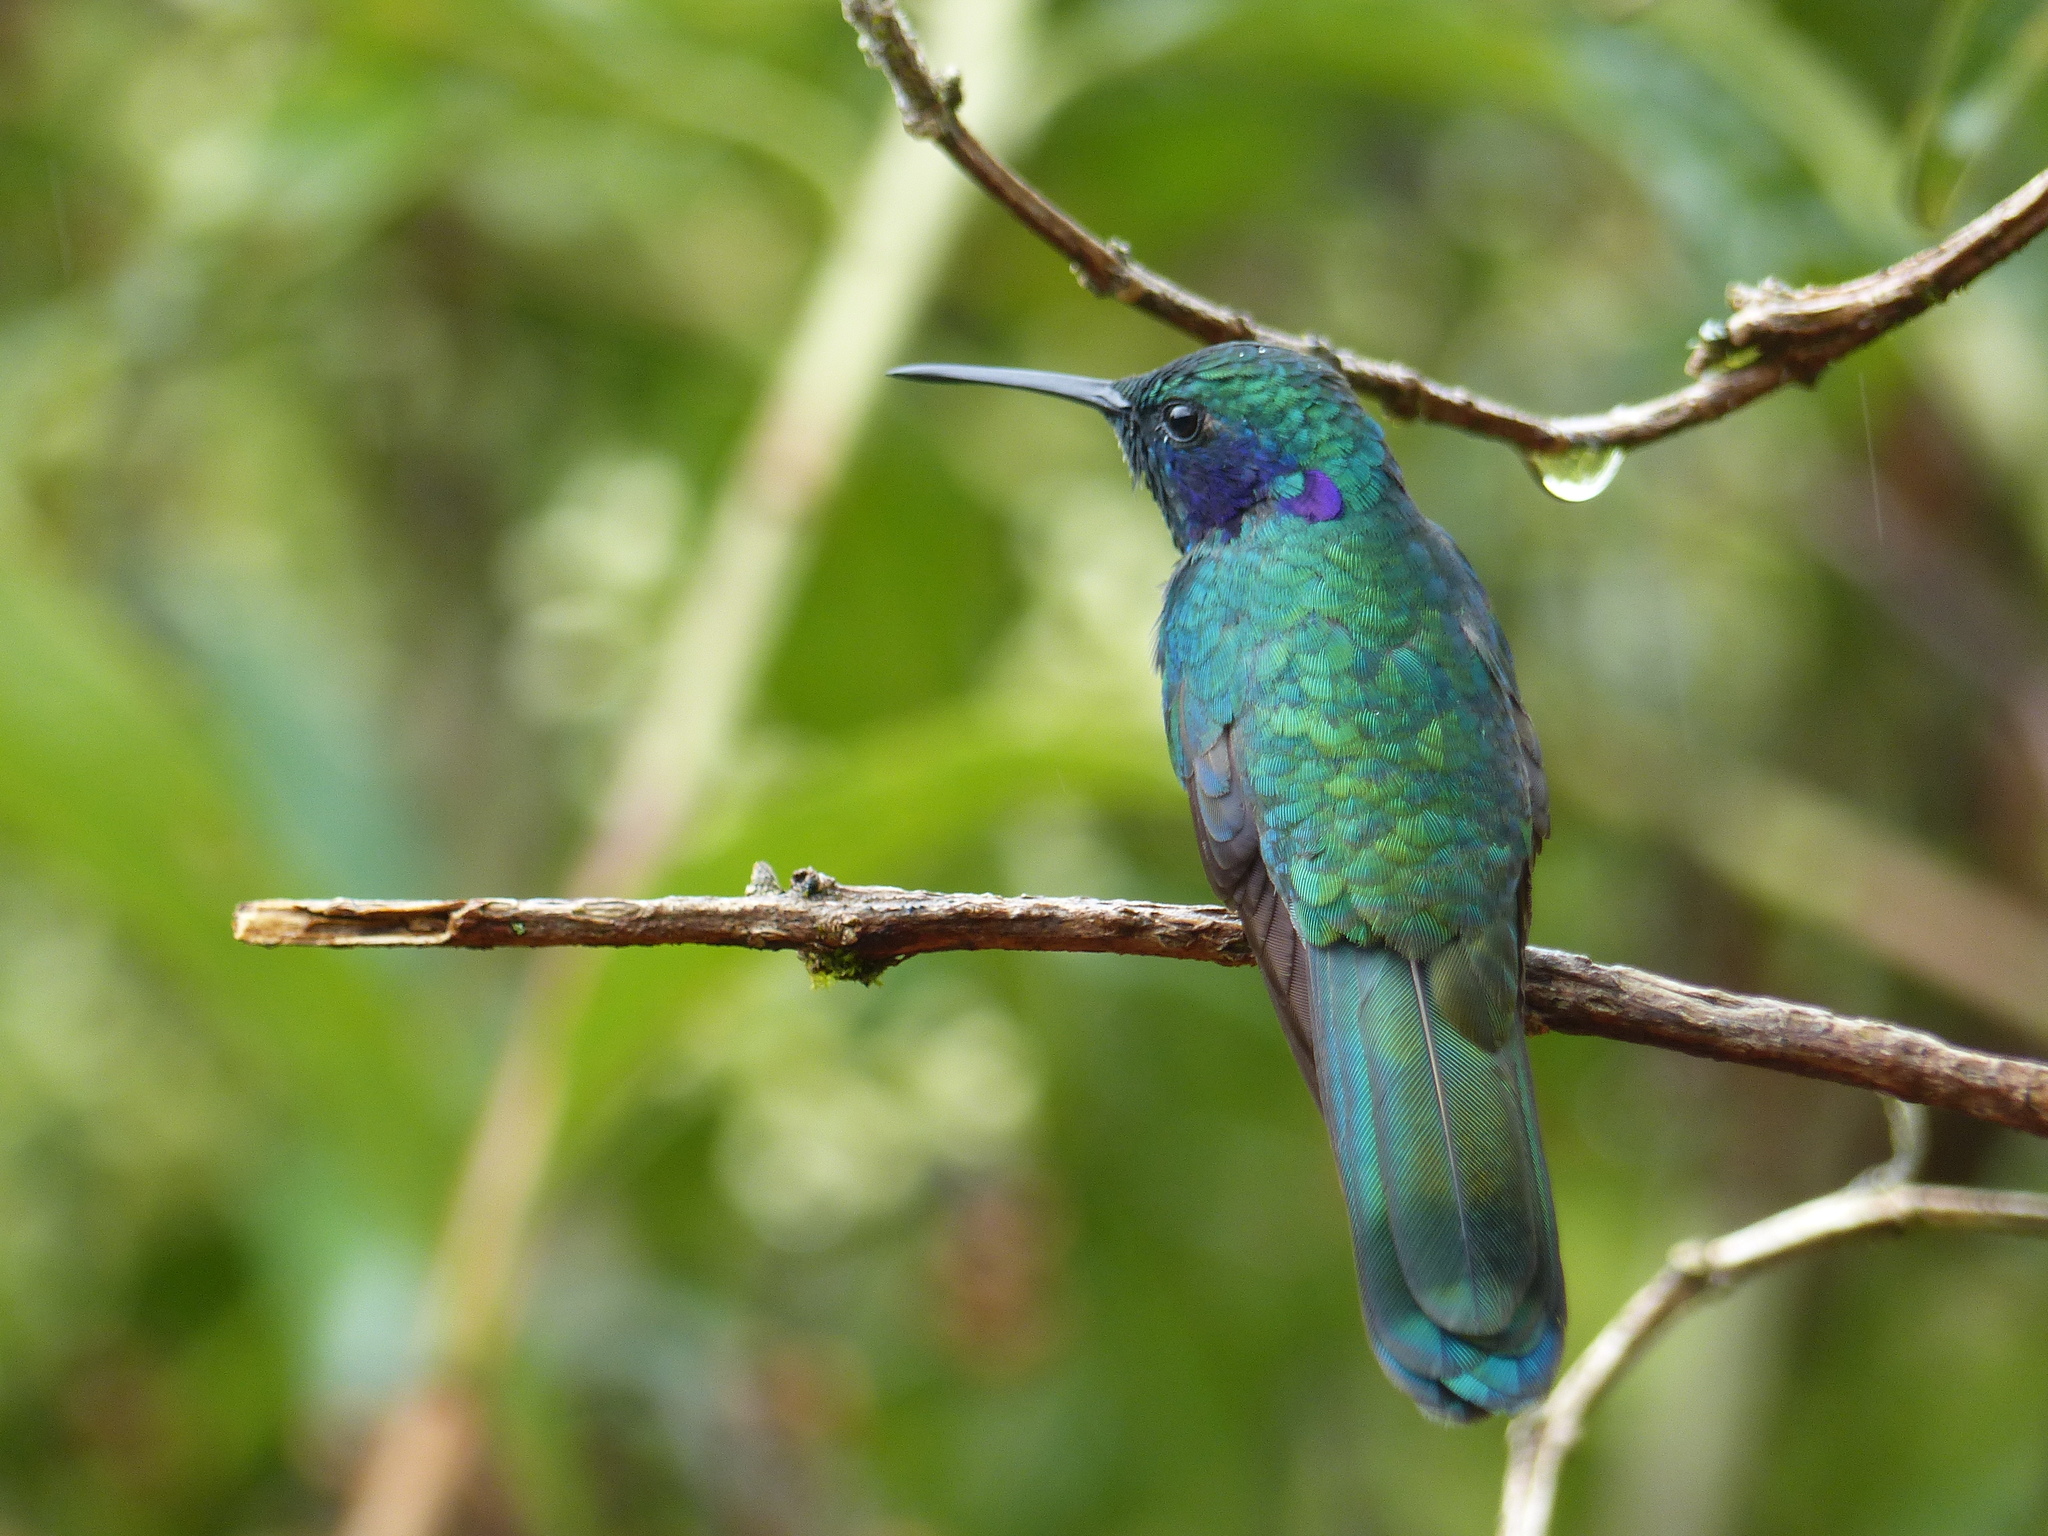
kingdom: Animalia
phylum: Chordata
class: Aves
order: Apodiformes
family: Trochilidae
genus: Colibri
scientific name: Colibri coruscans
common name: Sparkling violetear
